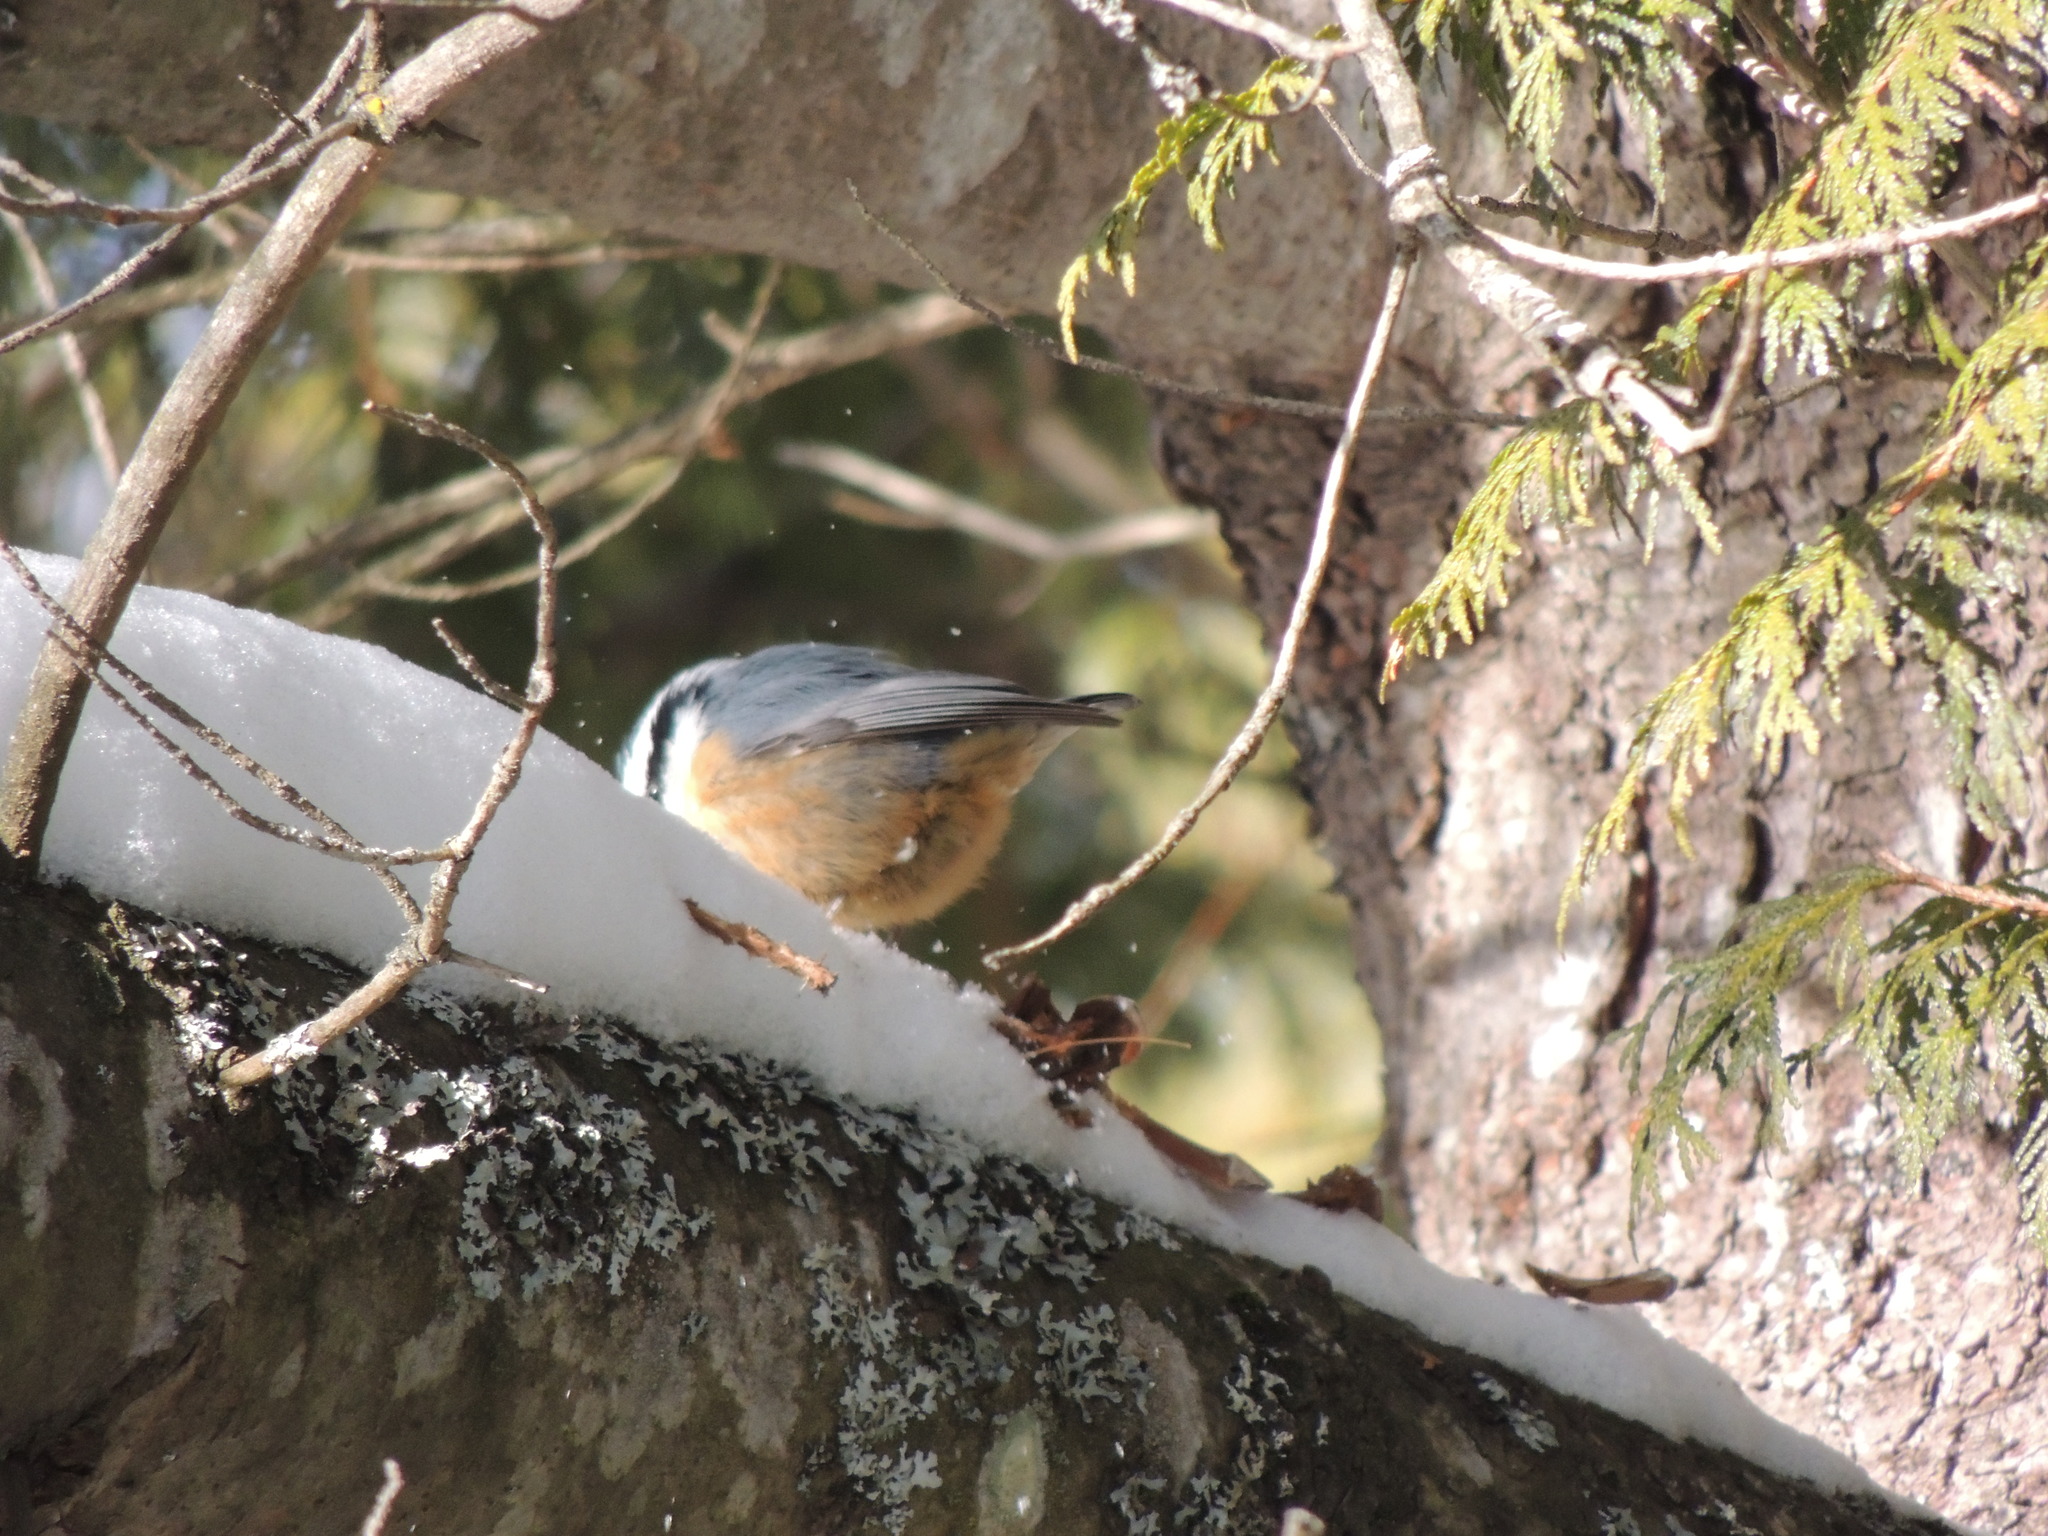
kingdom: Animalia
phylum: Chordata
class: Aves
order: Passeriformes
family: Sittidae
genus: Sitta
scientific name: Sitta canadensis
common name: Red-breasted nuthatch
